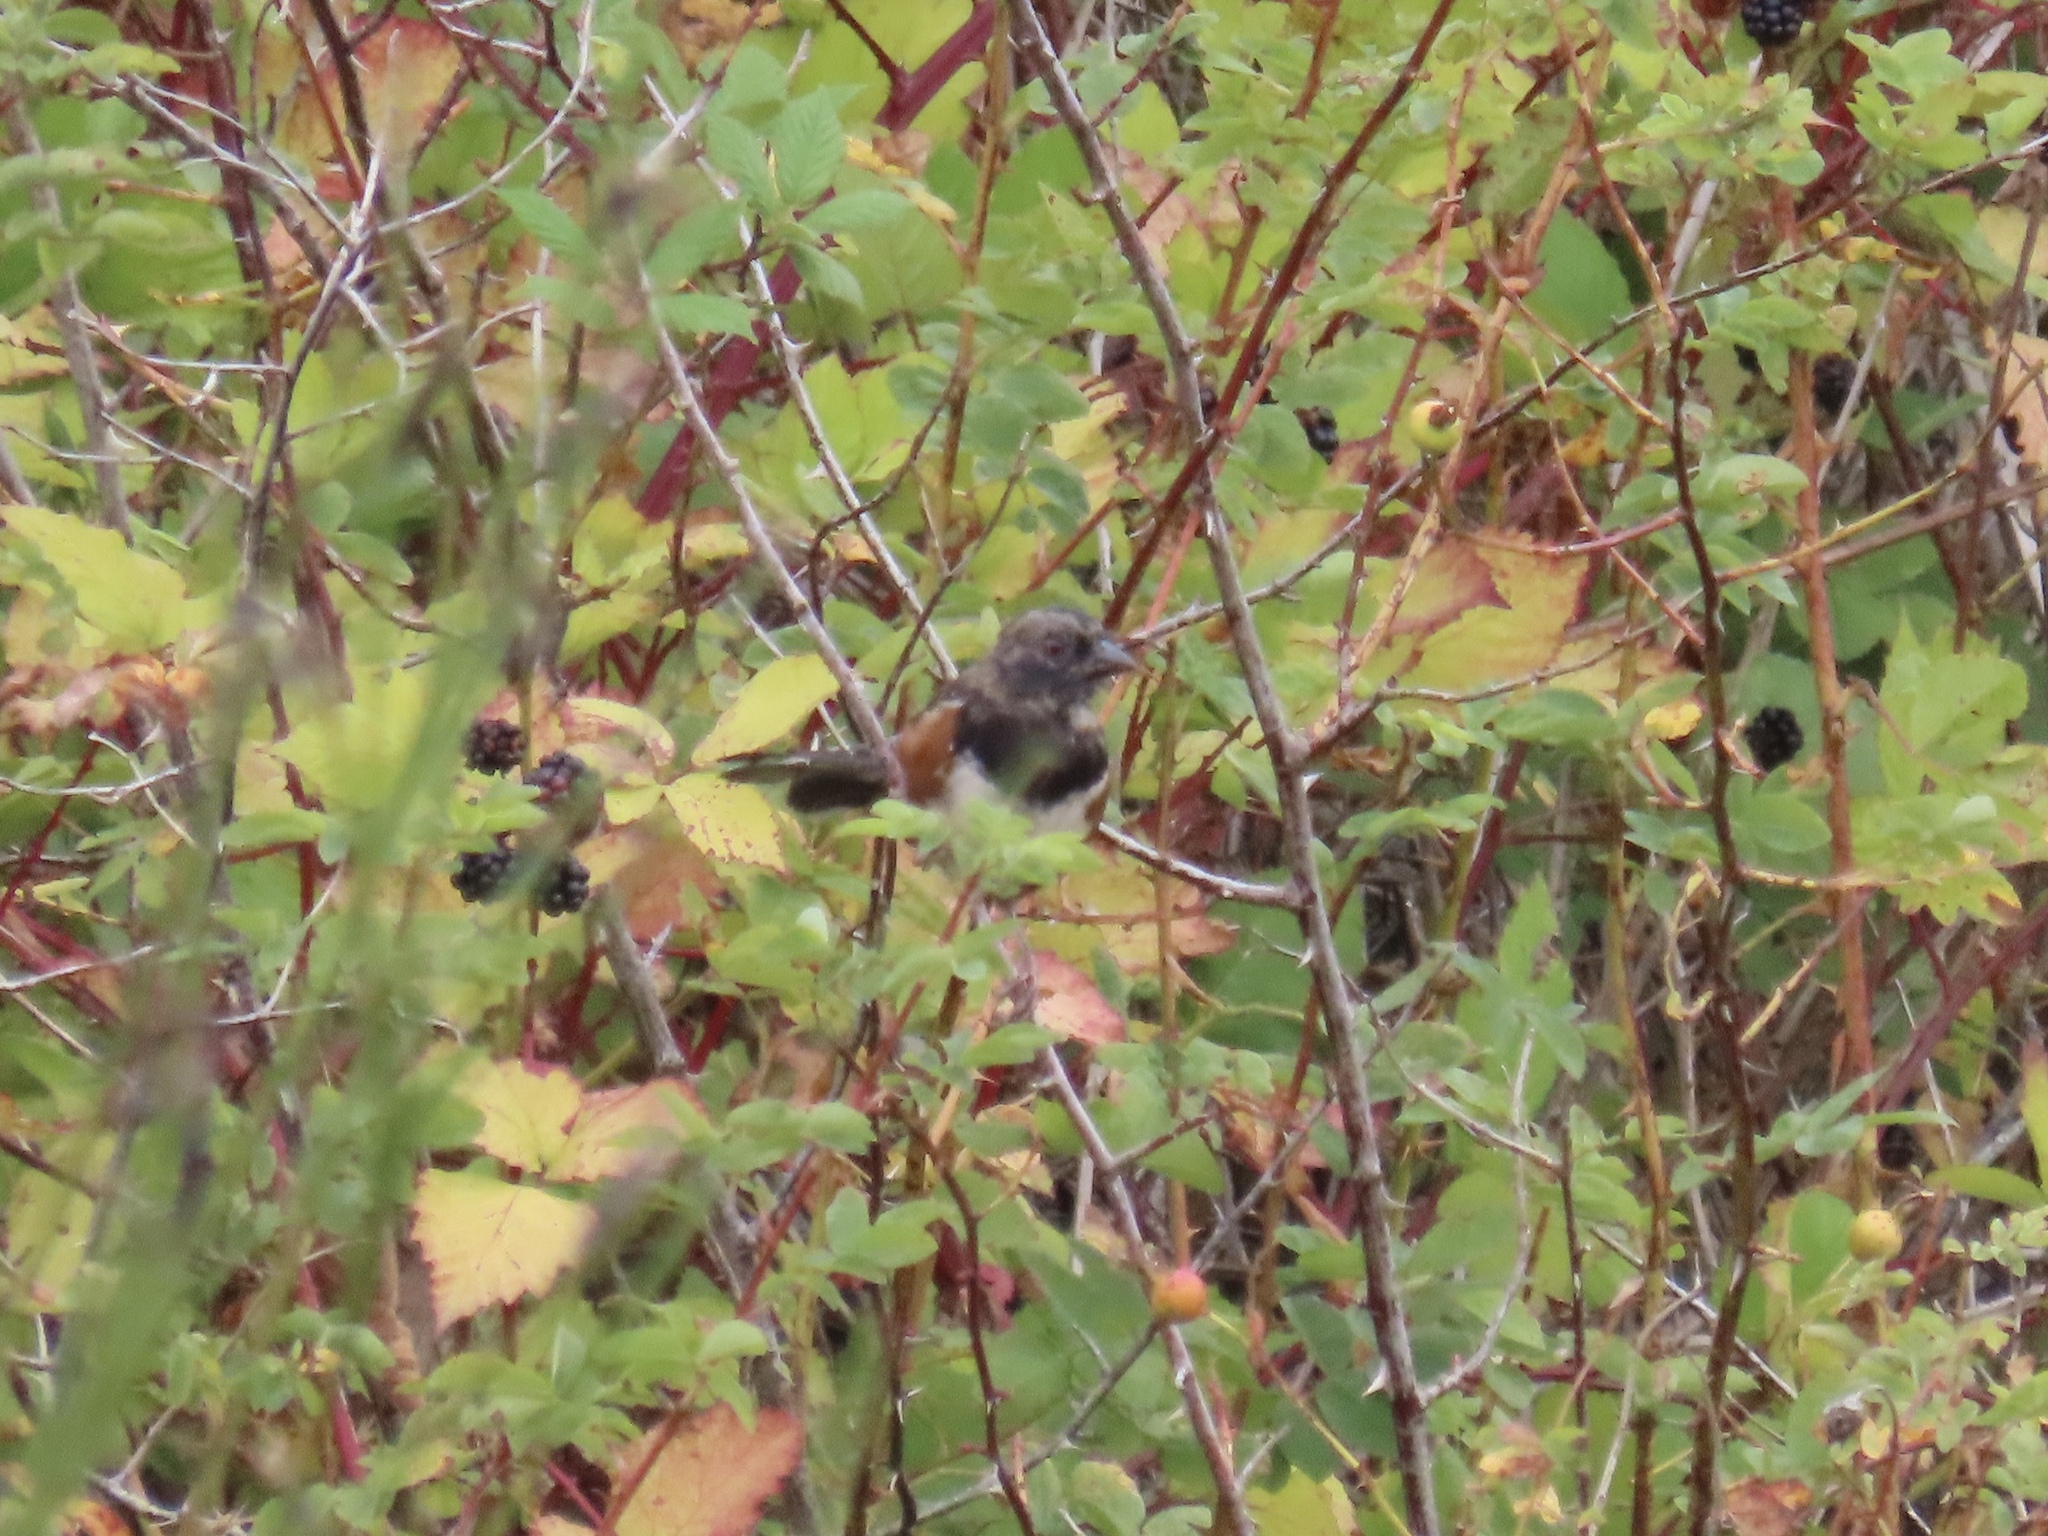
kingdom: Animalia
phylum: Chordata
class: Aves
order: Passeriformes
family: Passerellidae
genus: Pipilo
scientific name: Pipilo maculatus
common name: Spotted towhee
